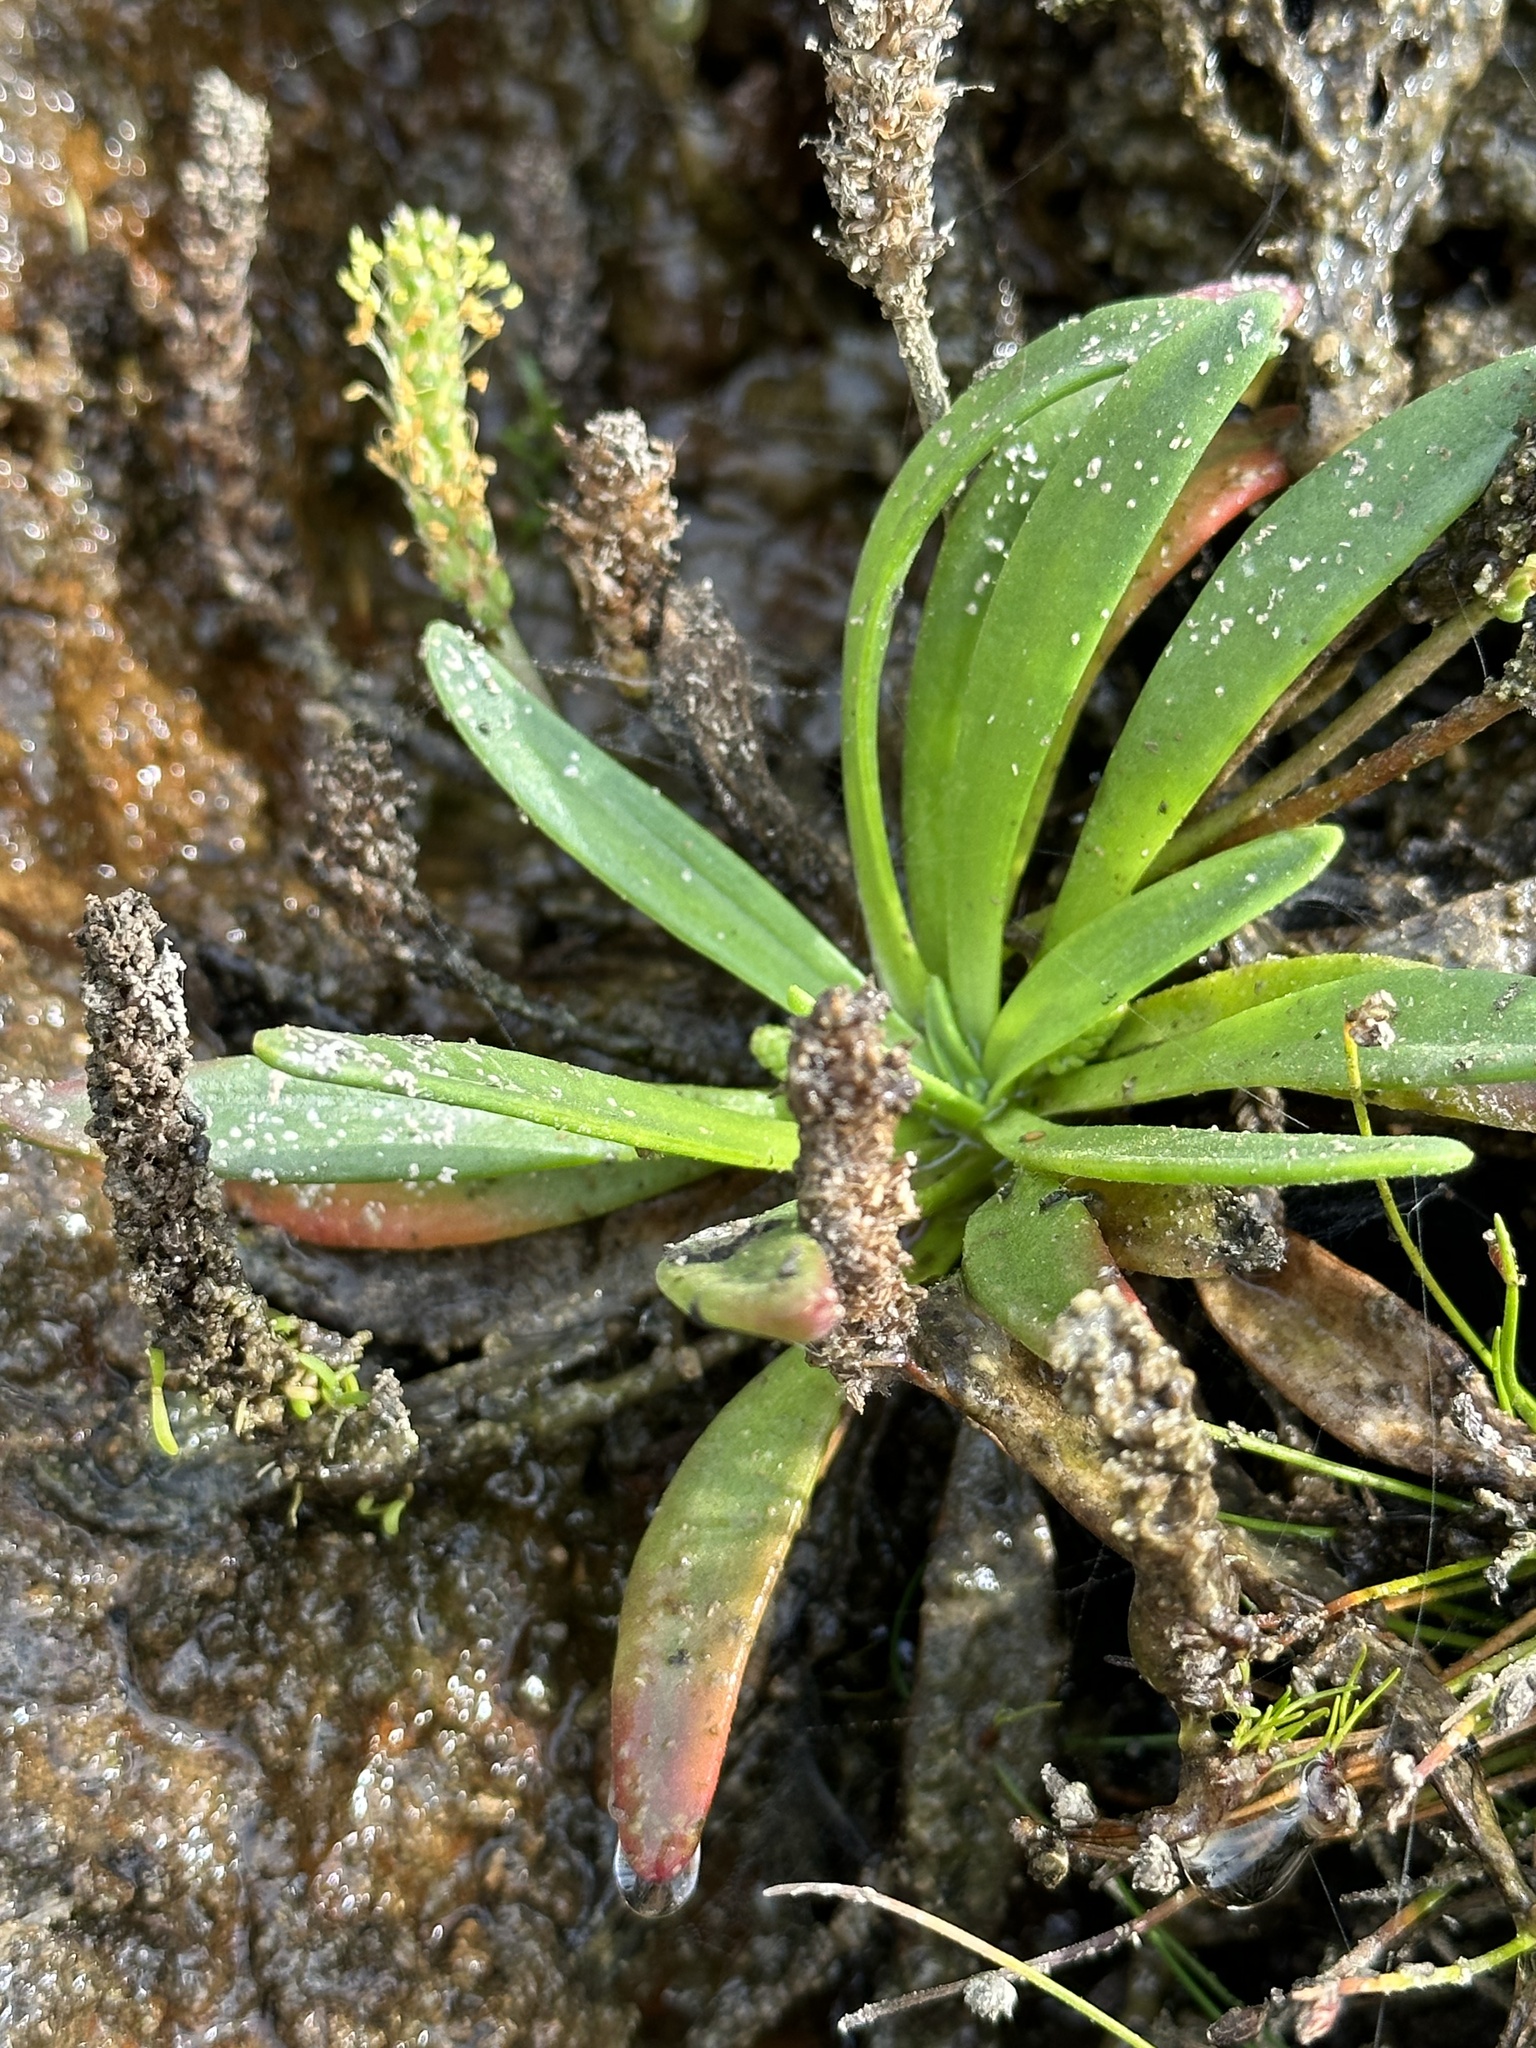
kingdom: Plantae
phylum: Tracheophyta
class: Magnoliopsida
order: Lamiales
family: Plantaginaceae
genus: Plantago
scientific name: Plantago maritima
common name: Sea plantain
